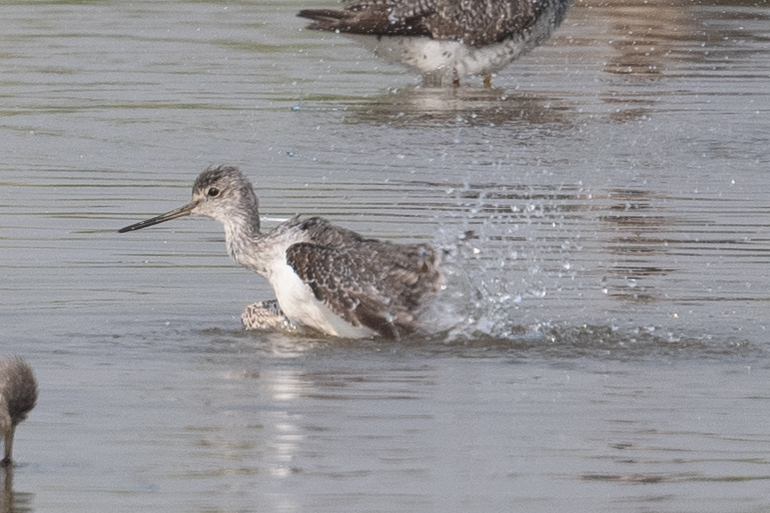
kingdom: Animalia
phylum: Chordata
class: Aves
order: Charadriiformes
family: Scolopacidae
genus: Tringa
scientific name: Tringa melanoleuca
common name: Greater yellowlegs
